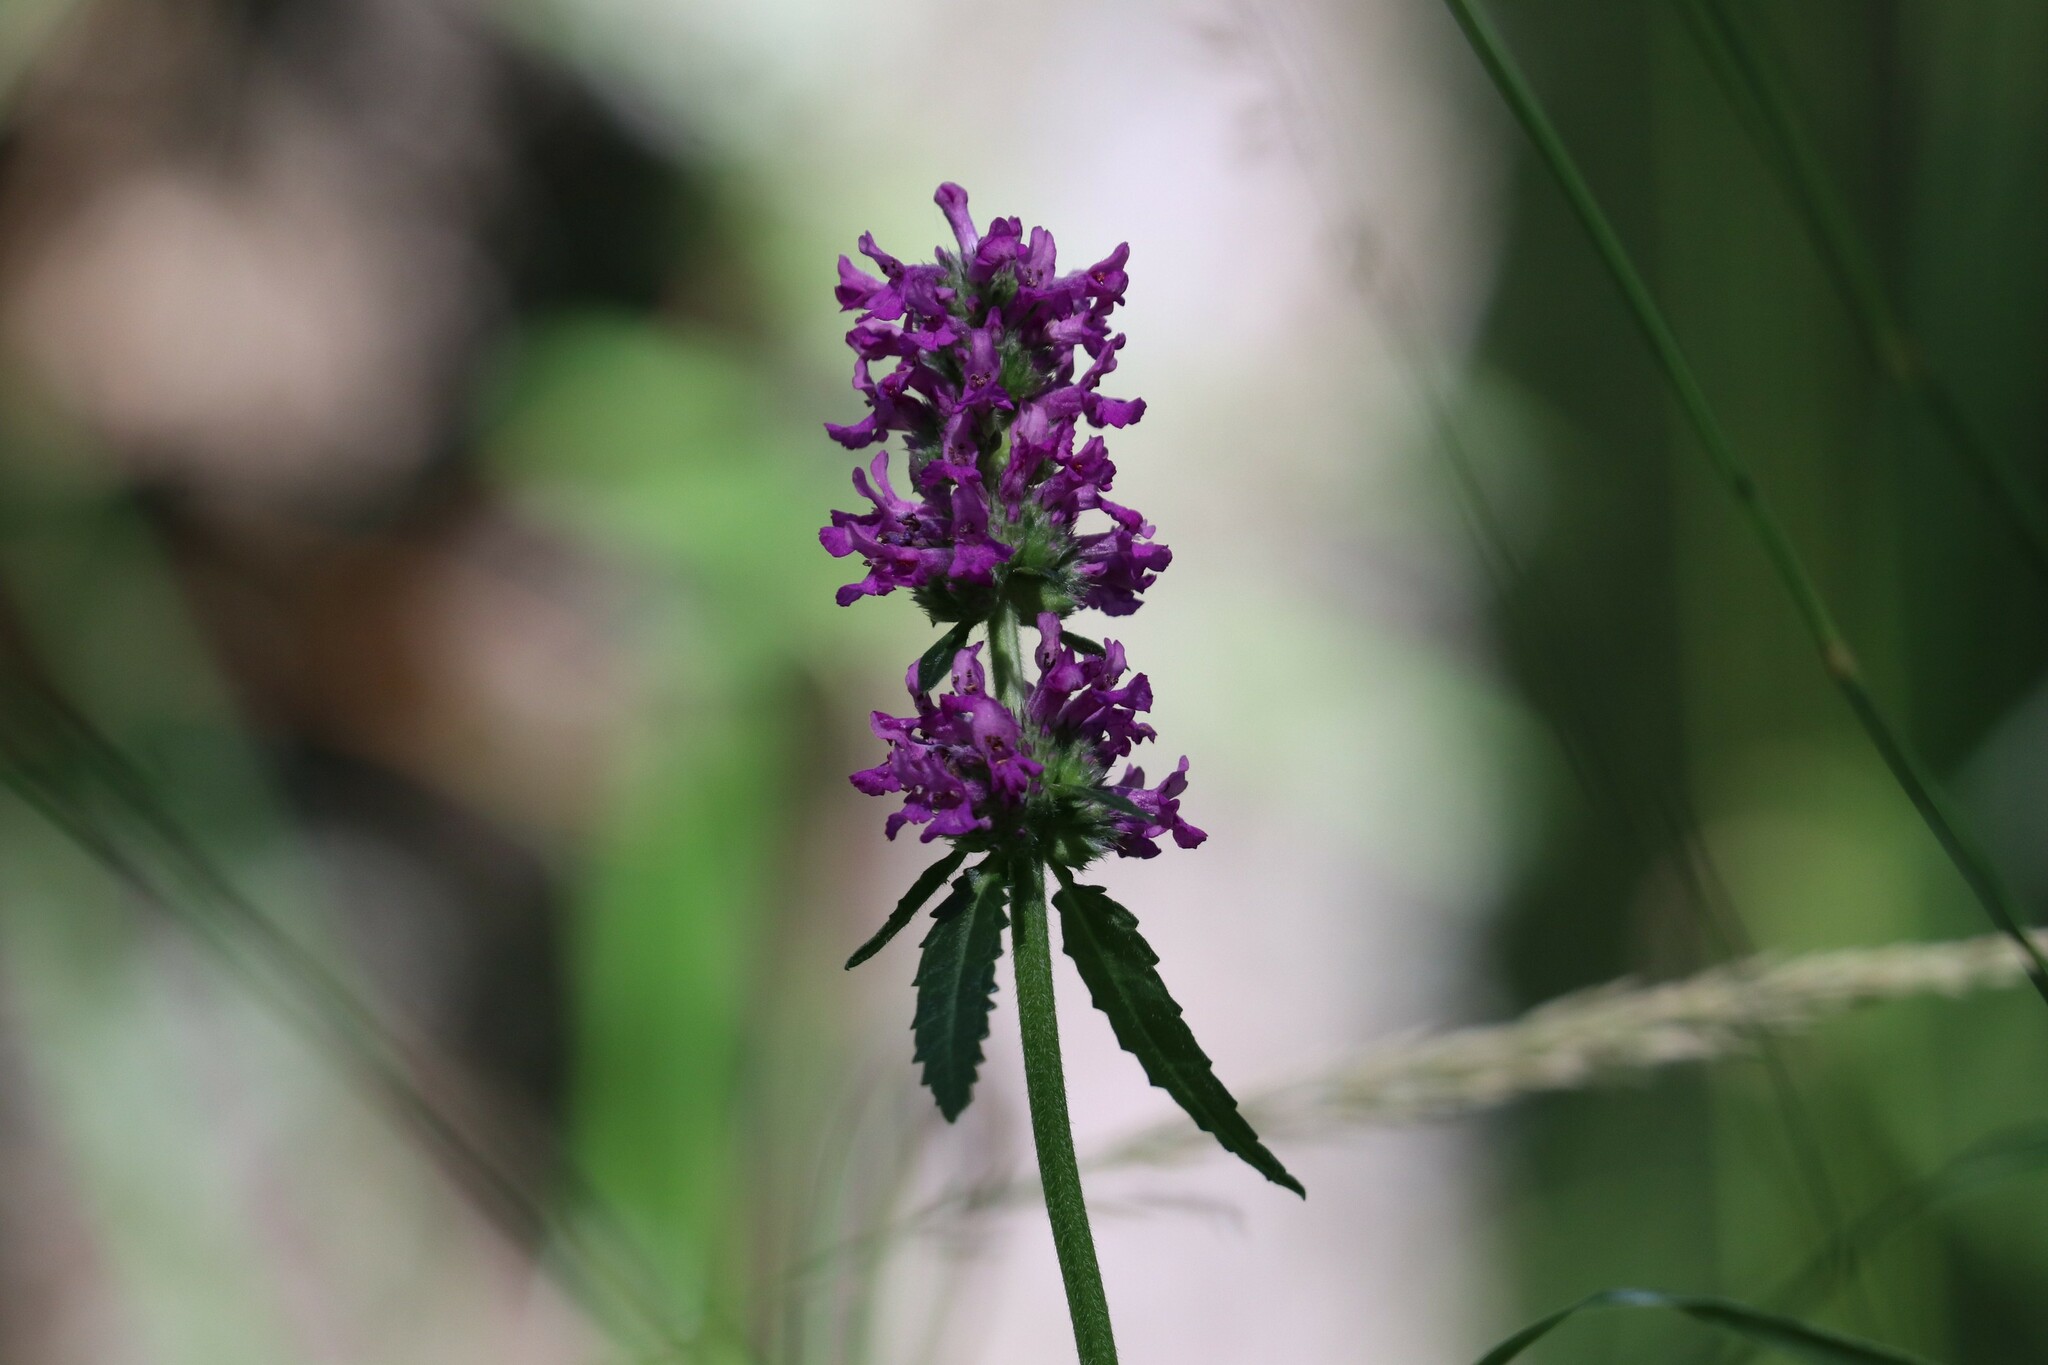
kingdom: Plantae
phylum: Tracheophyta
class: Magnoliopsida
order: Lamiales
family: Lamiaceae
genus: Betonica
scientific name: Betonica officinalis
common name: Bishop's-wort
